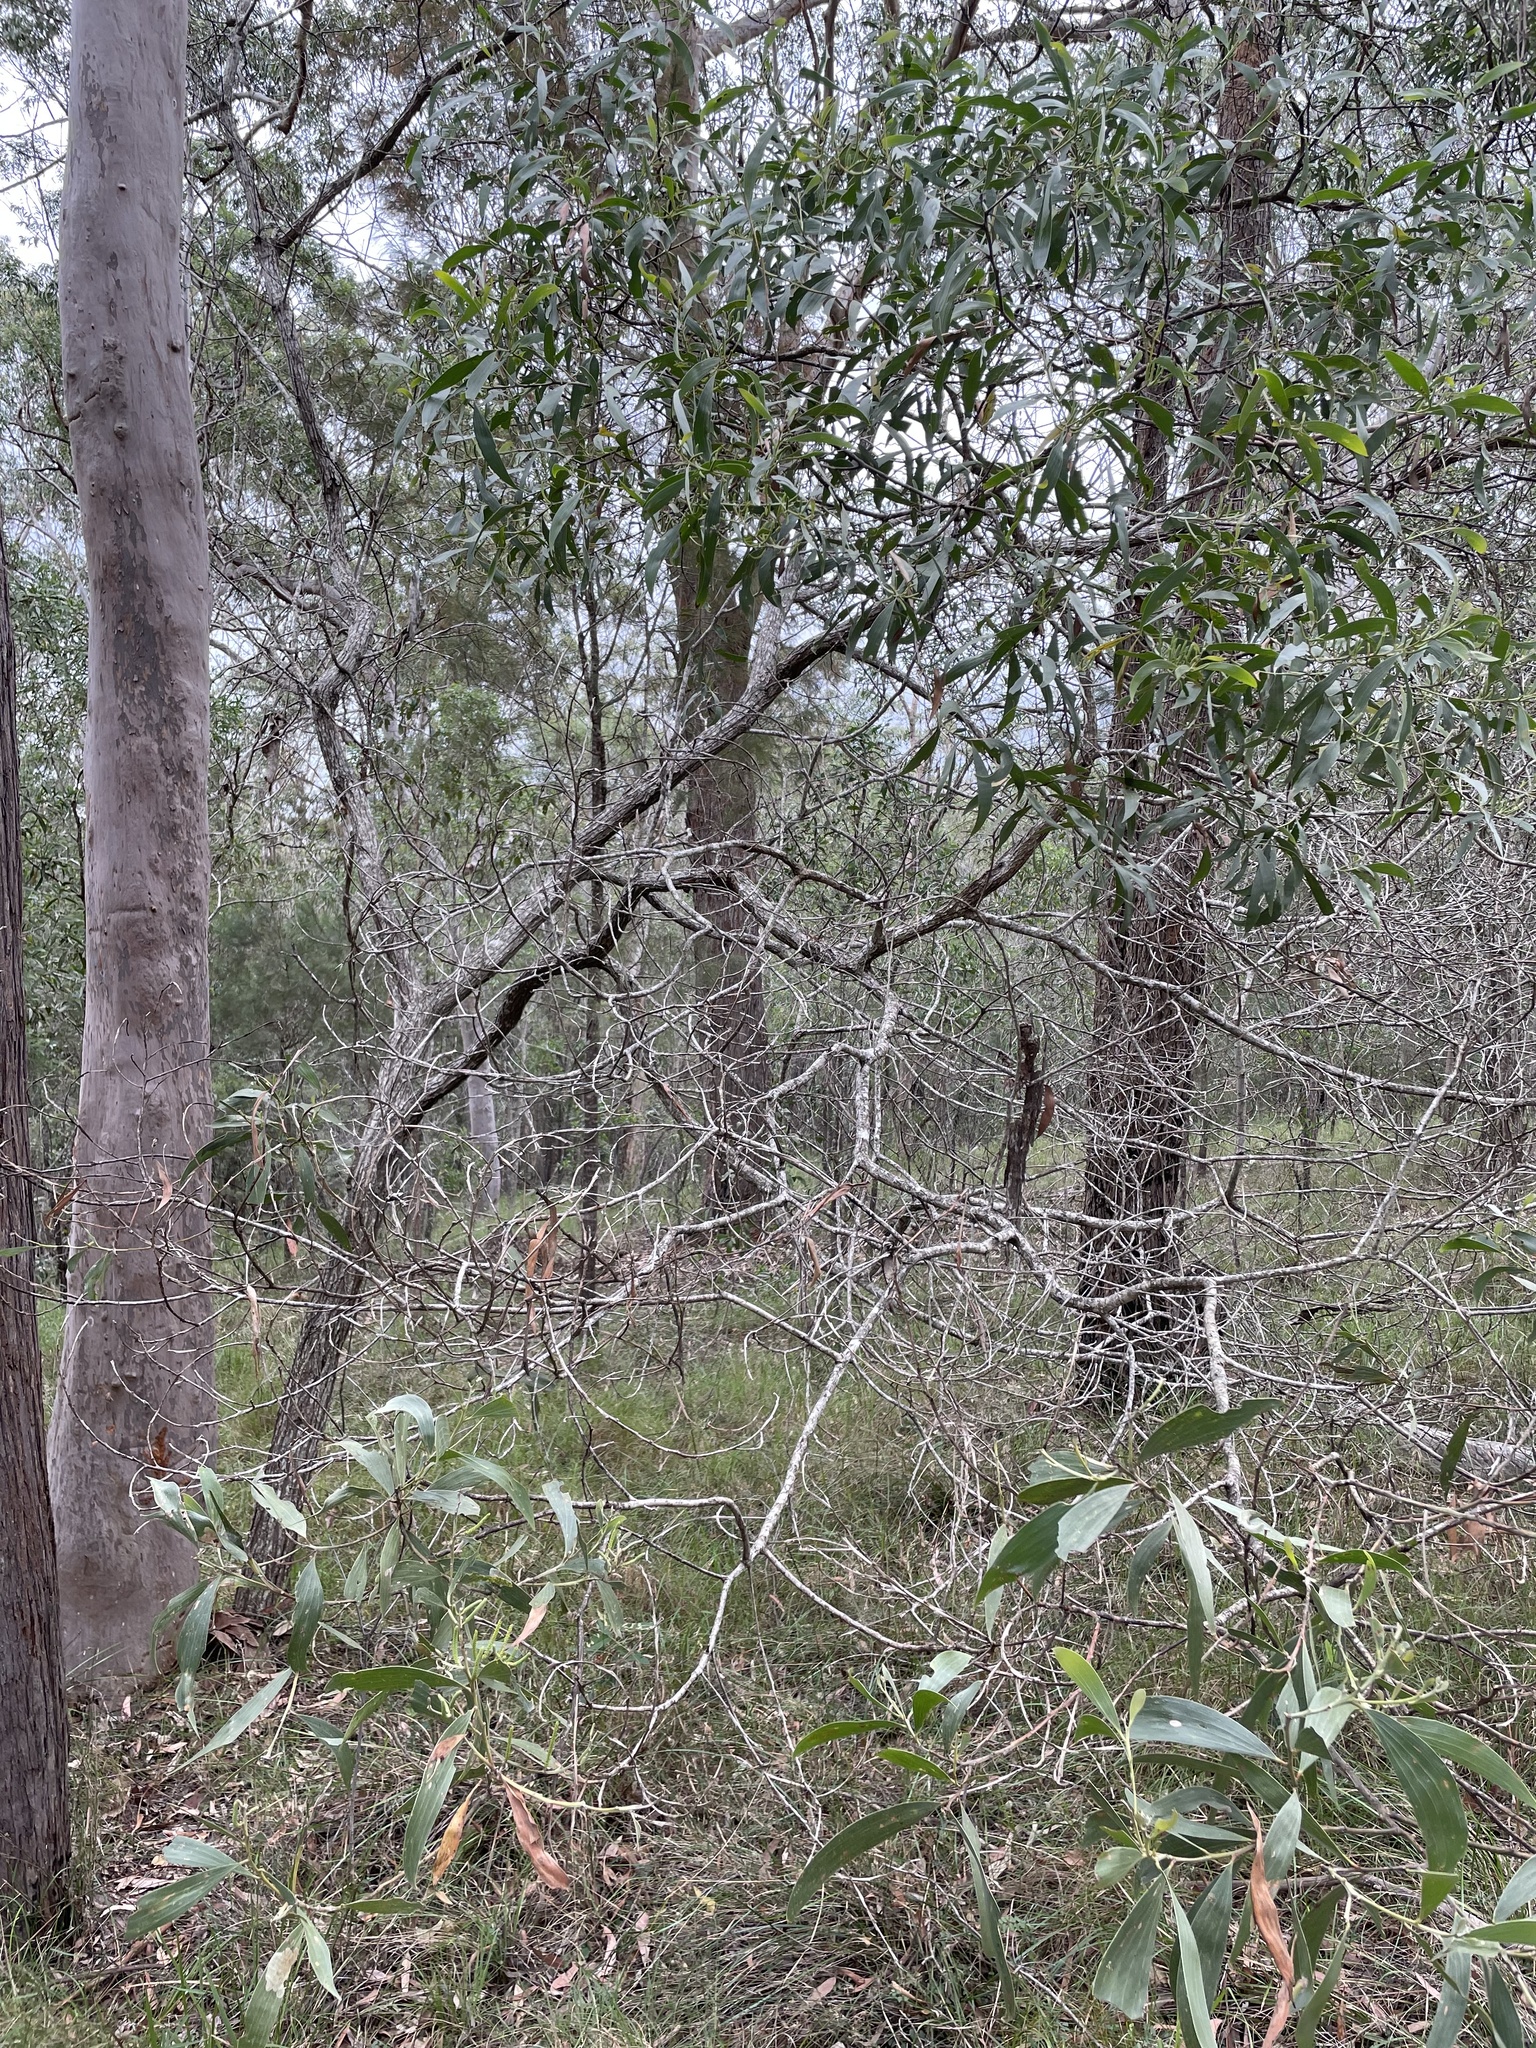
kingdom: Plantae
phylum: Tracheophyta
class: Magnoliopsida
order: Fabales
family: Fabaceae
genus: Acacia
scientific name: Acacia leiocalyx
